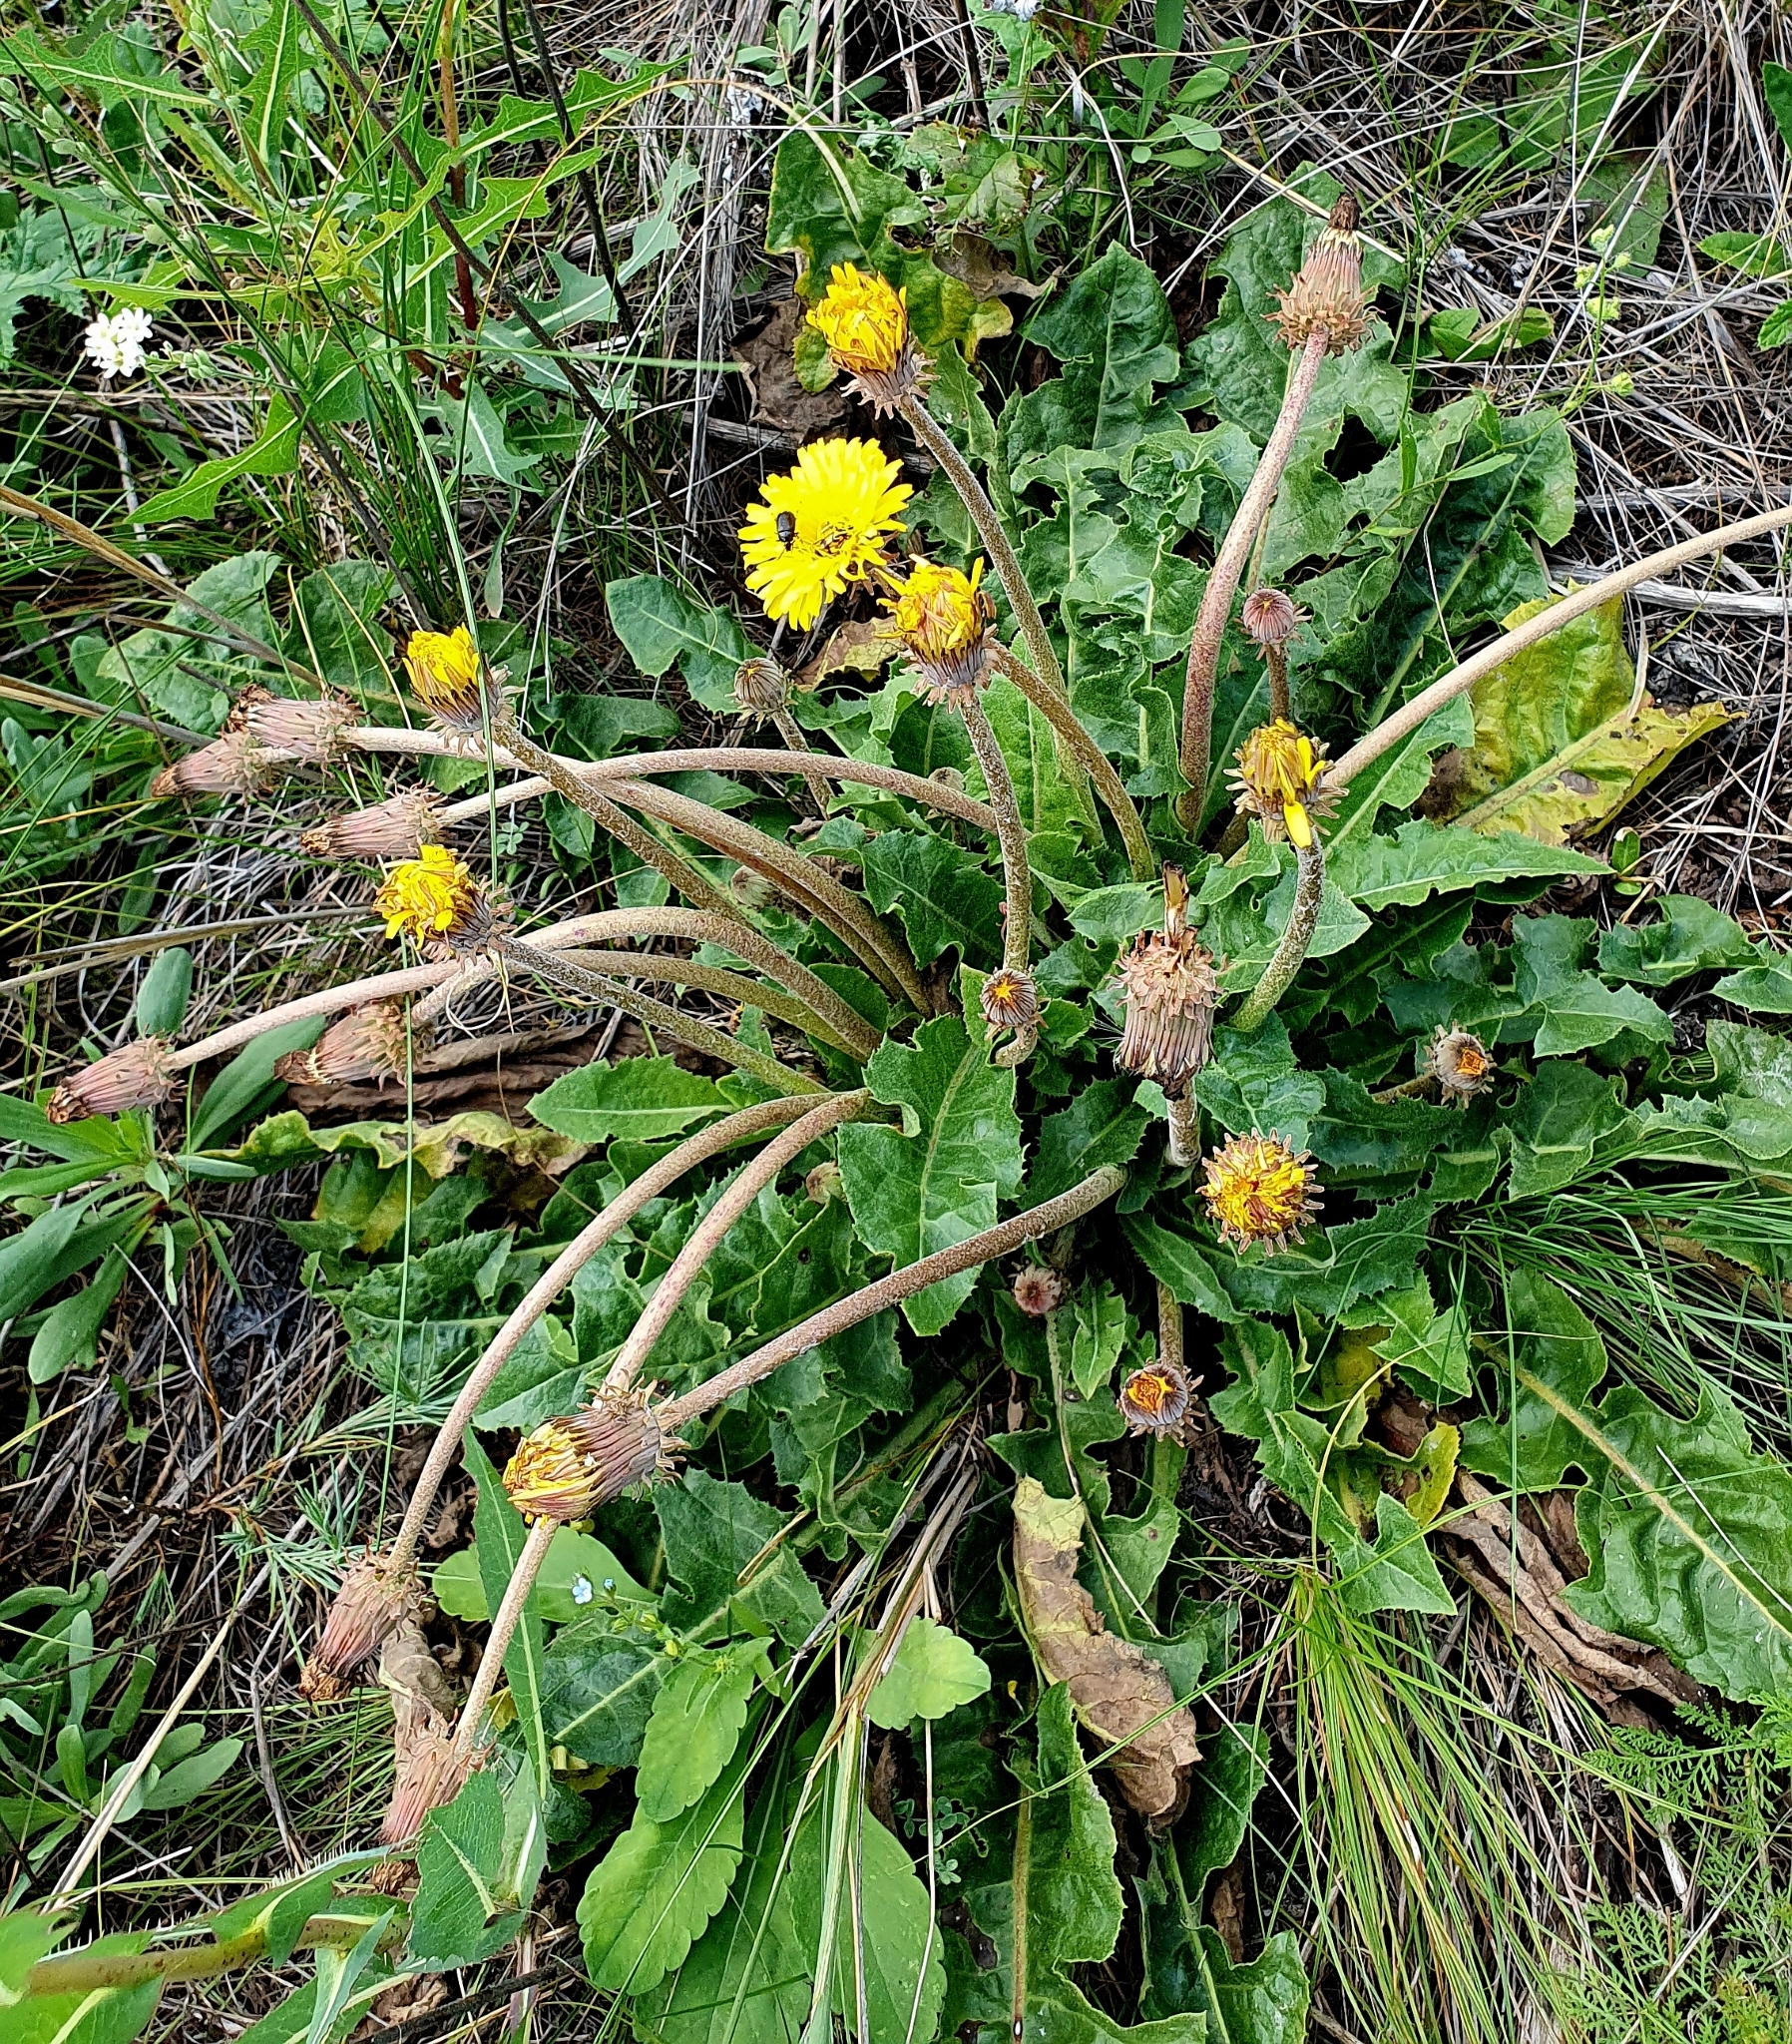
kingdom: Plantae
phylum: Tracheophyta
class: Magnoliopsida
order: Asterales
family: Asteraceae
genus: Taraxacum
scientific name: Taraxacum serotinum
